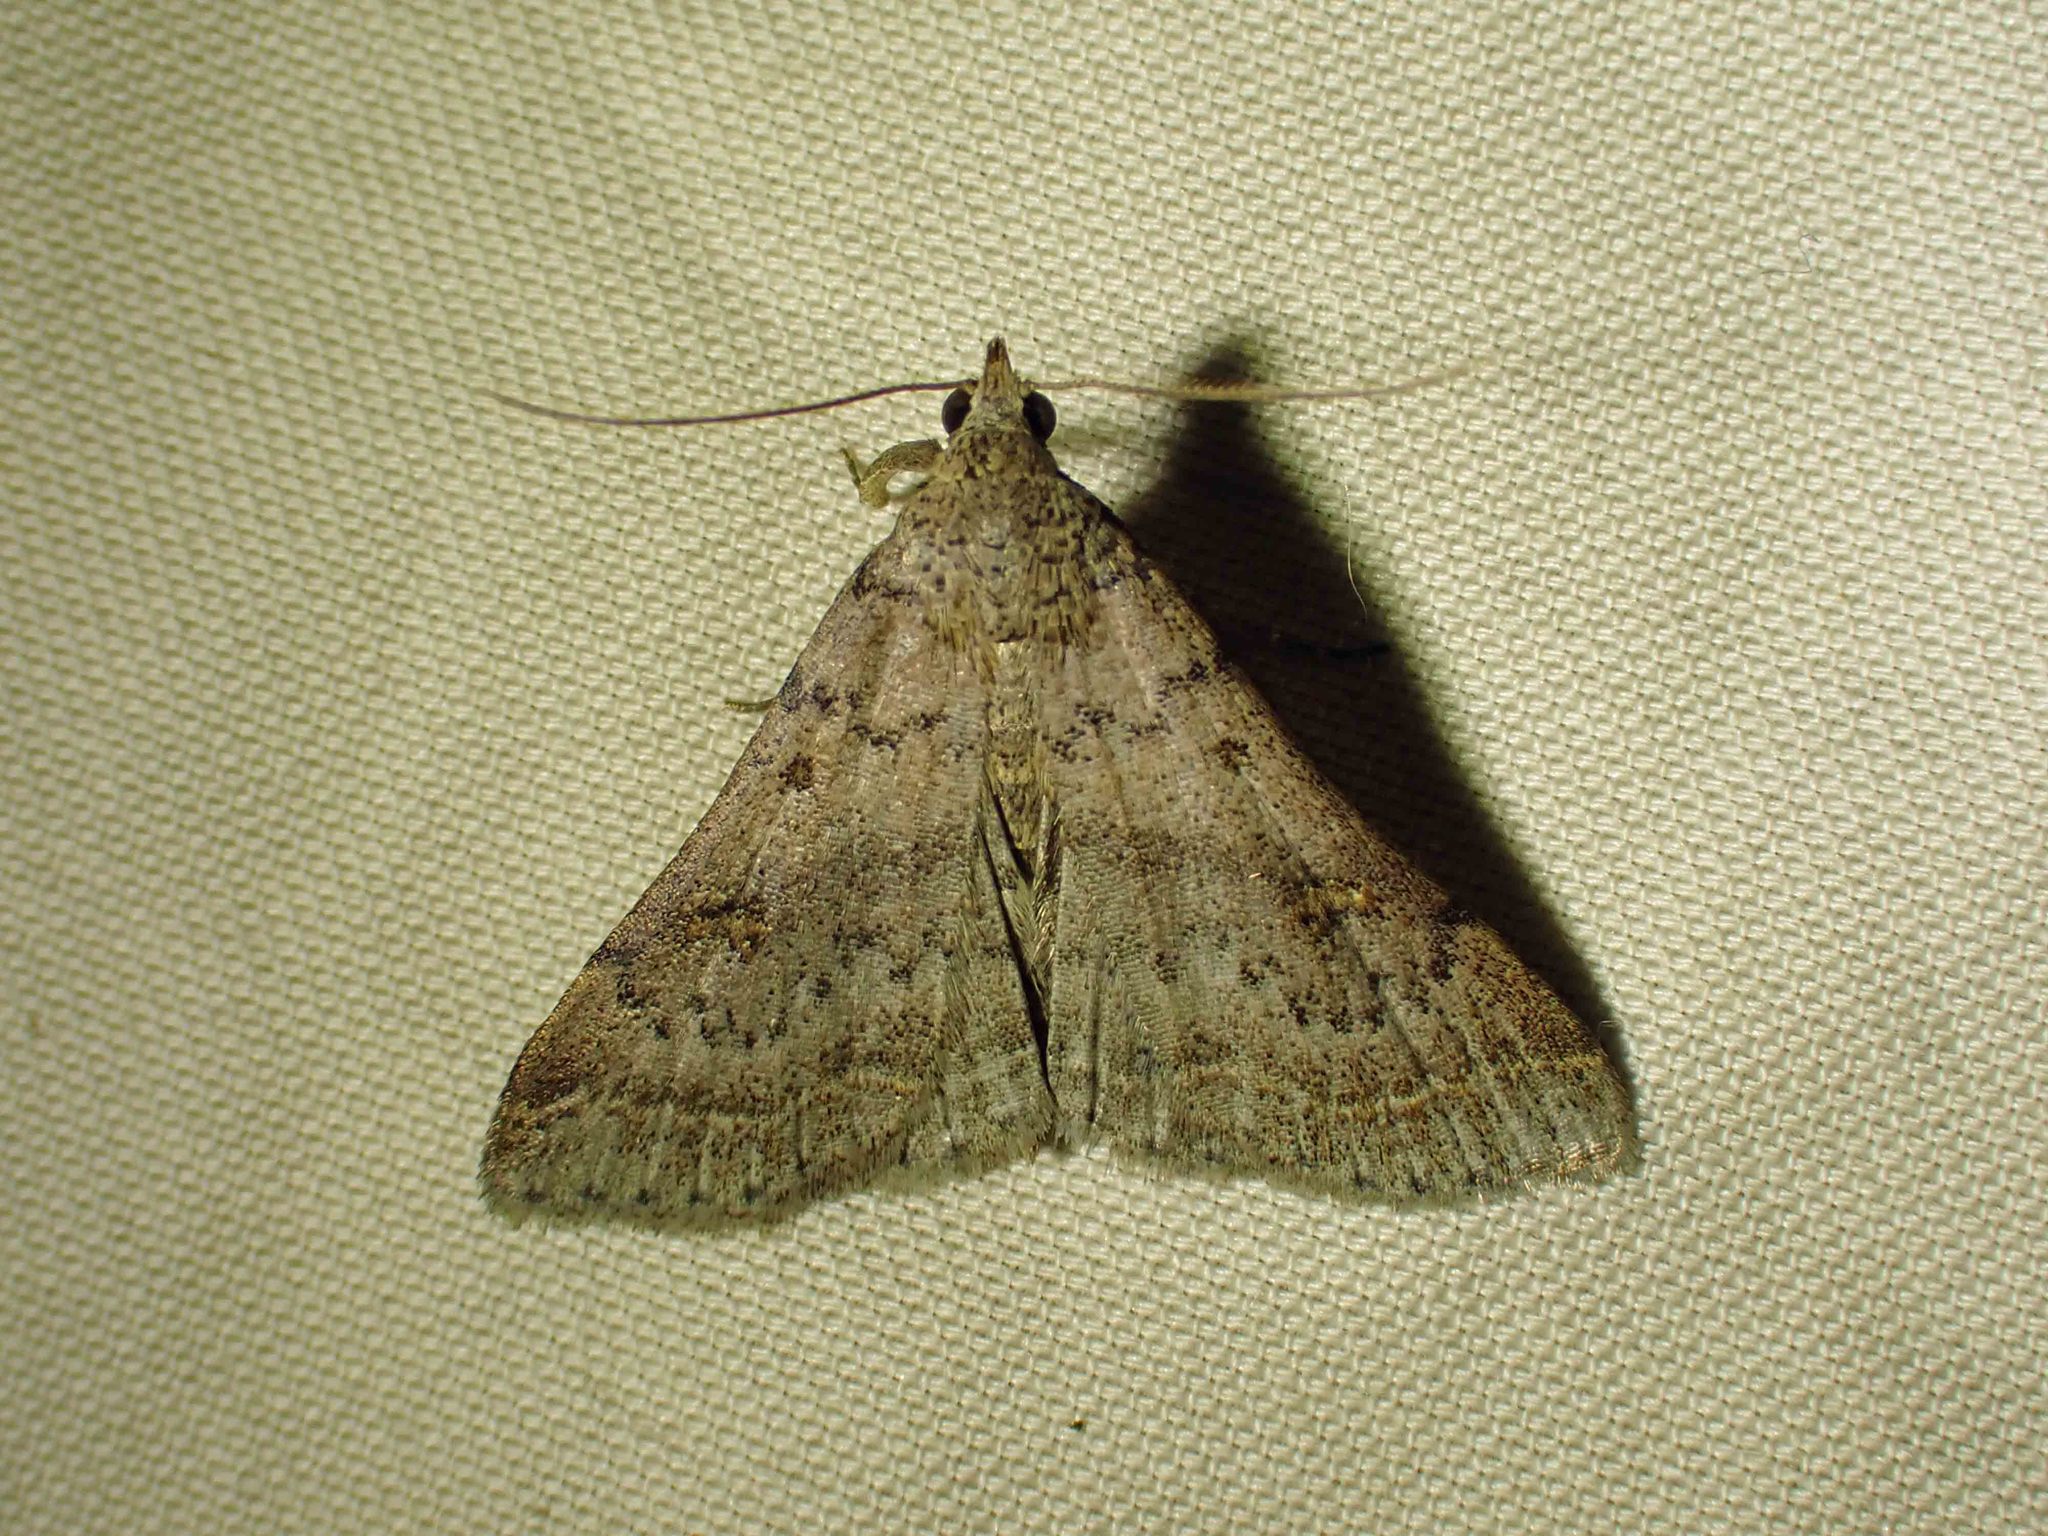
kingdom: Animalia
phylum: Arthropoda
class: Insecta
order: Lepidoptera
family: Erebidae
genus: Bleptina
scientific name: Bleptina caradrinalis
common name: Bent-winged owlet
